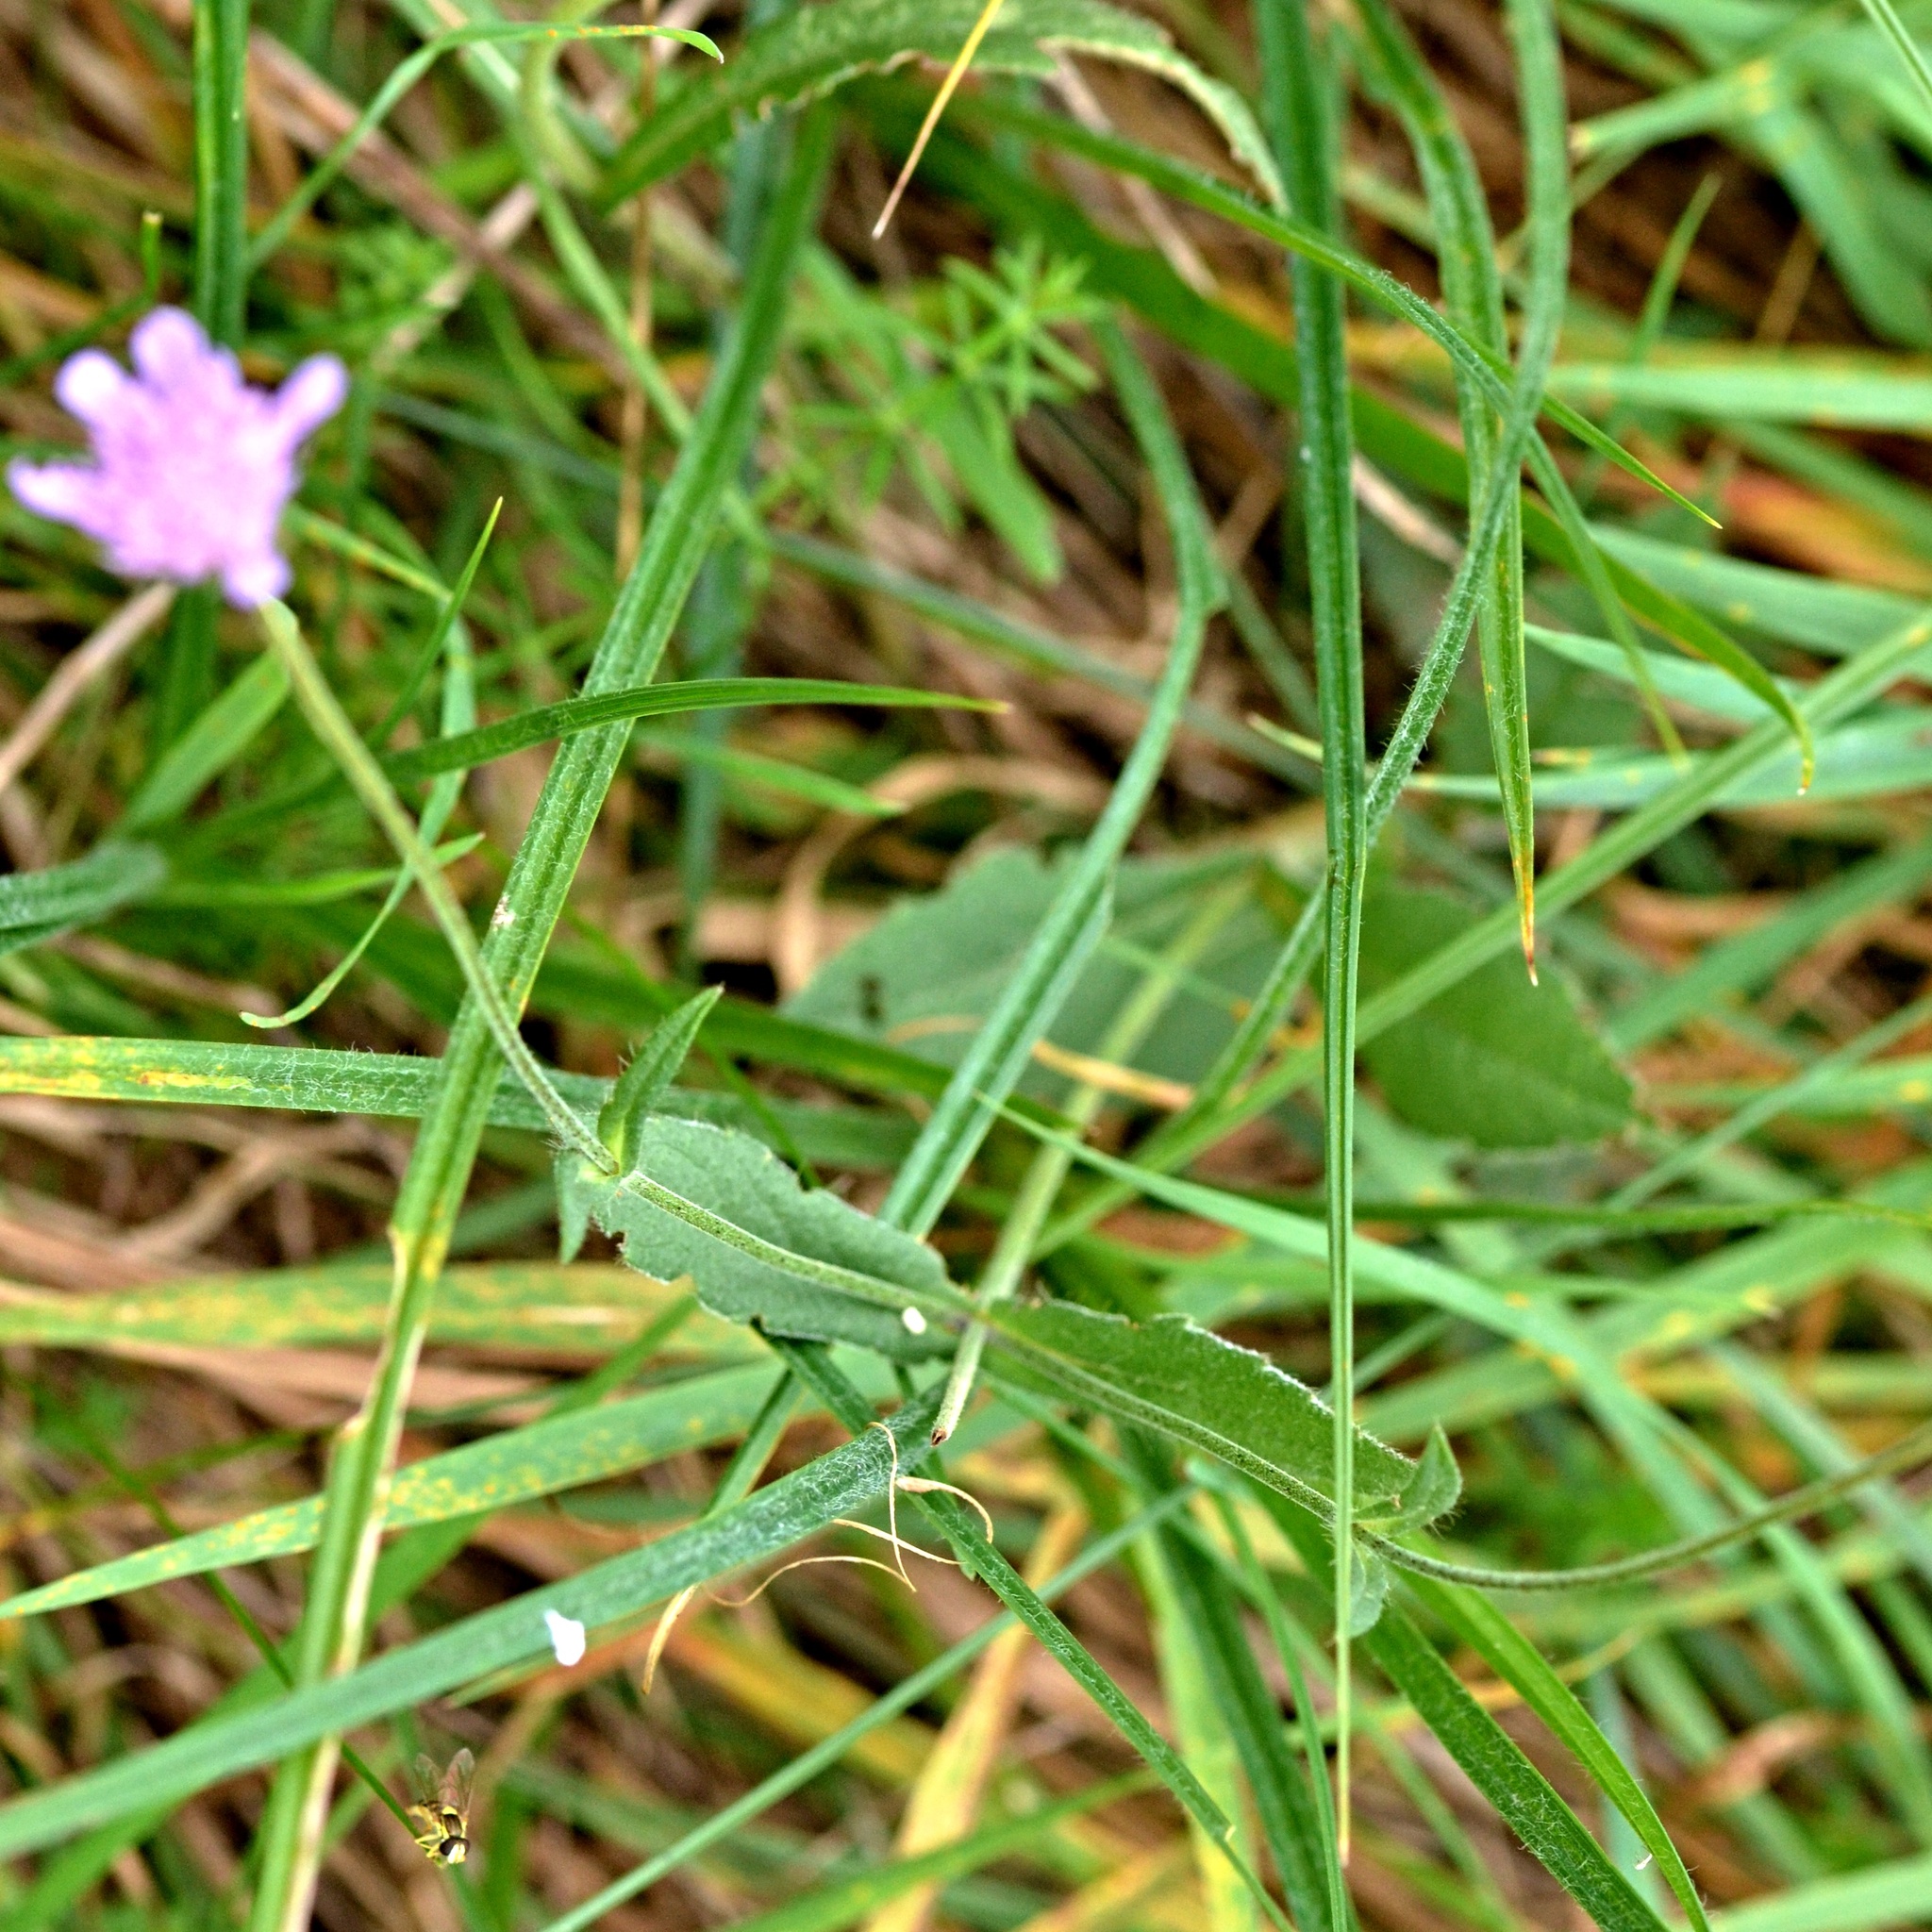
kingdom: Plantae
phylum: Tracheophyta
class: Magnoliopsida
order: Dipsacales
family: Caprifoliaceae
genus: Knautia
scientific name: Knautia arvensis
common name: Field scabiosa
